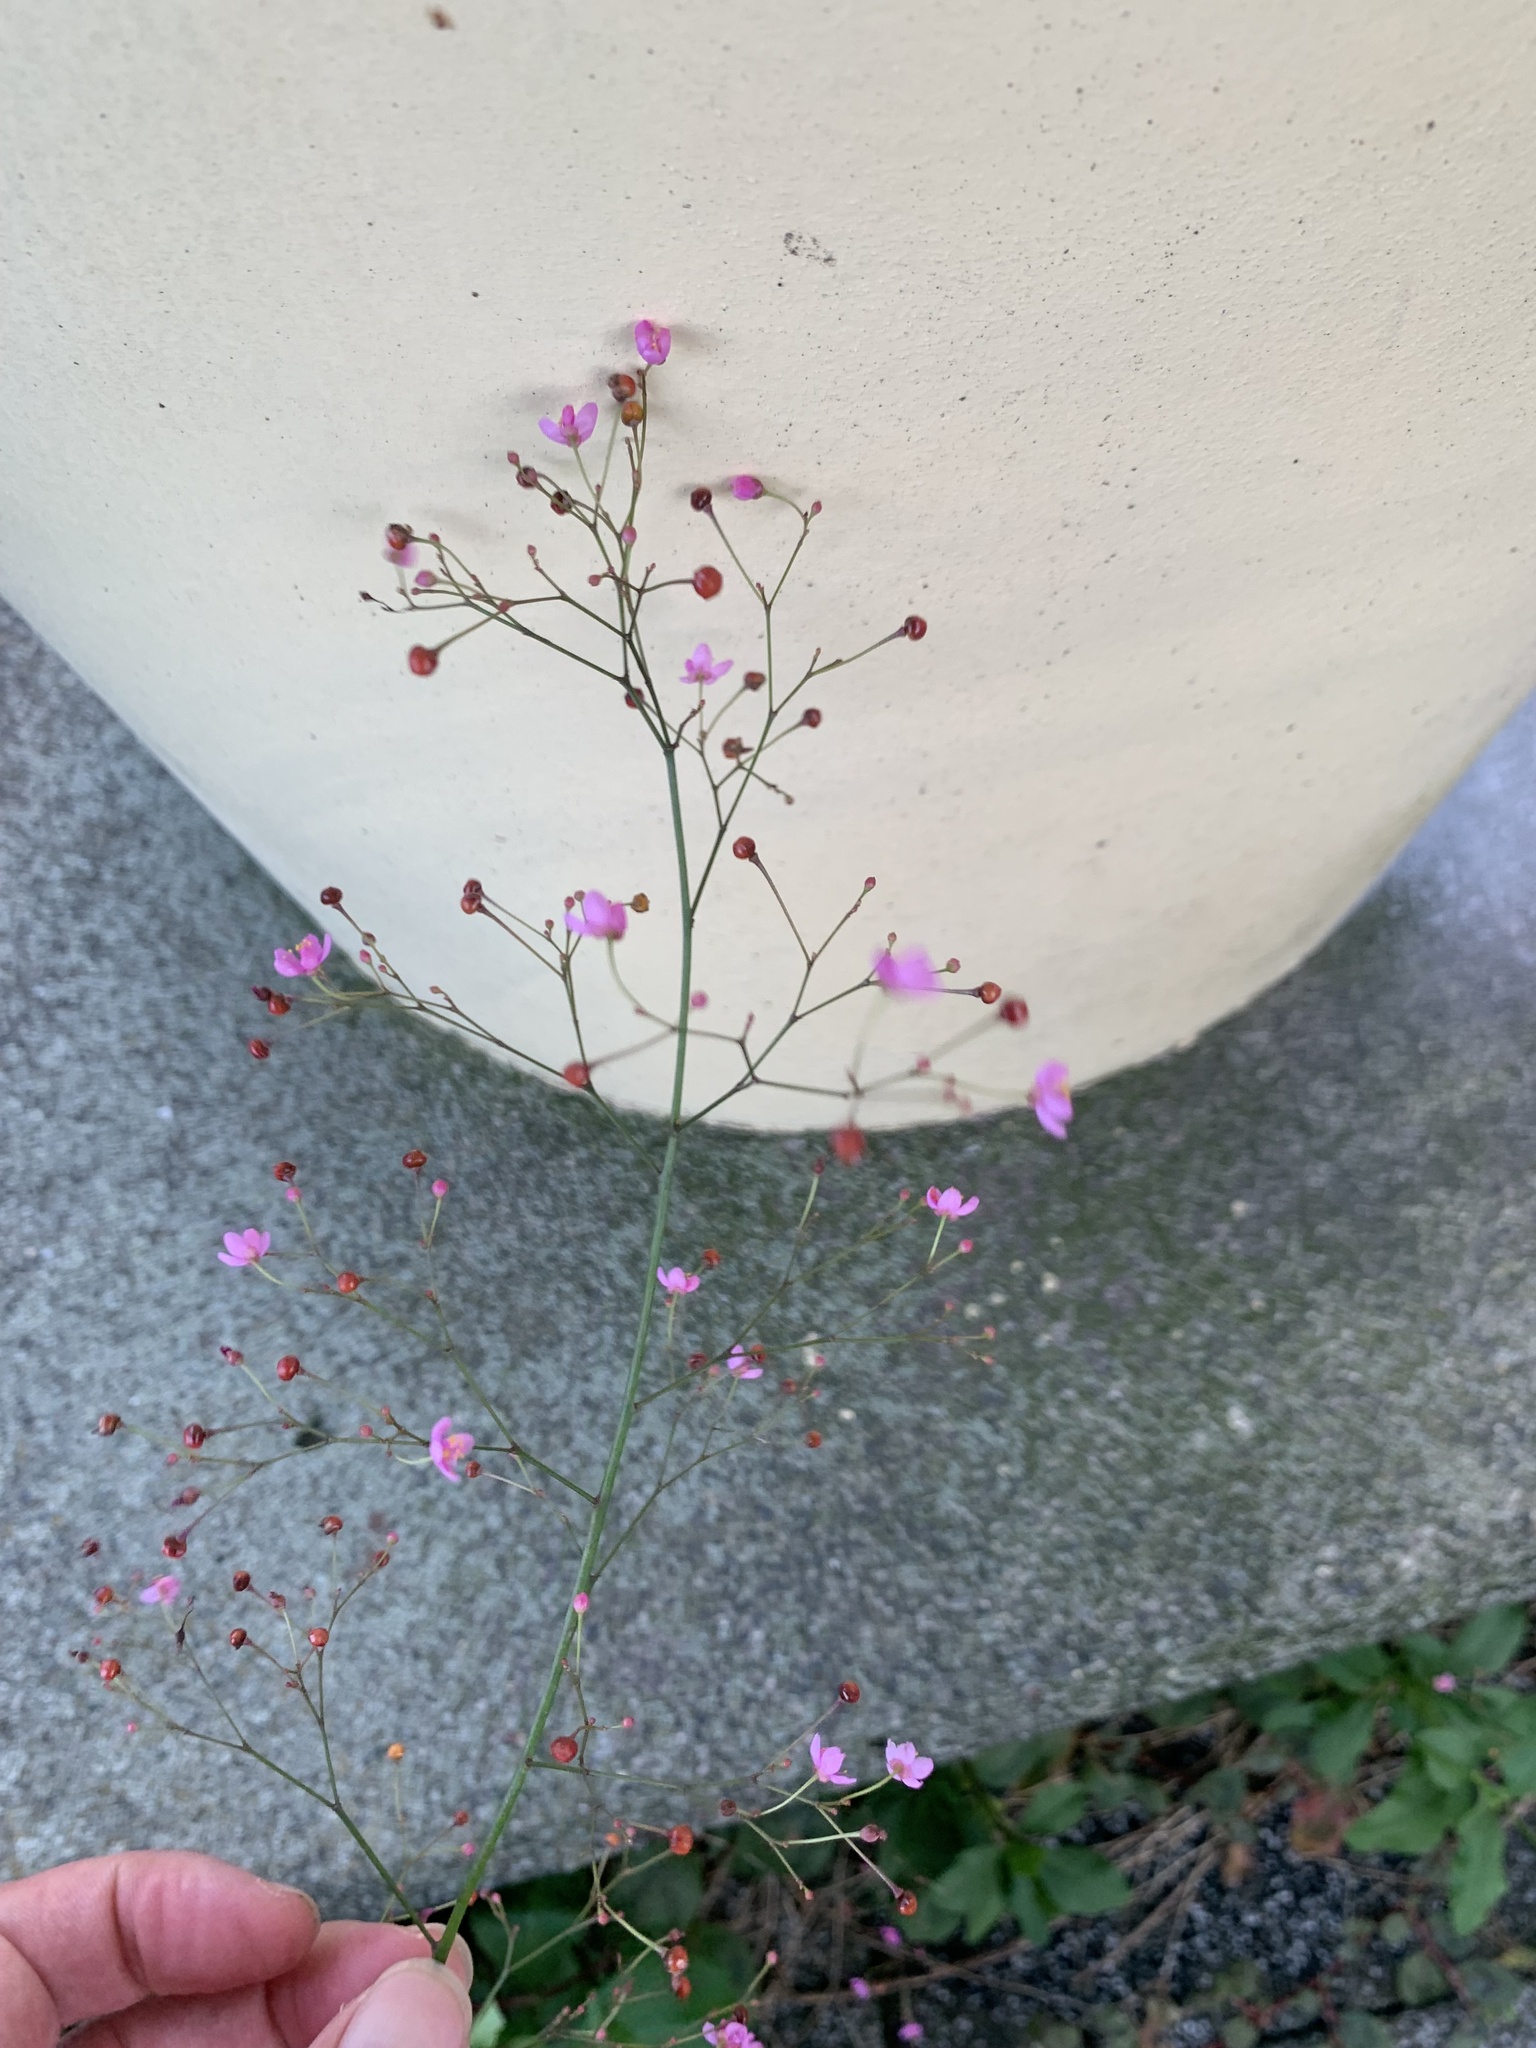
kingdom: Plantae
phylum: Tracheophyta
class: Magnoliopsida
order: Caryophyllales
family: Talinaceae
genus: Talinum
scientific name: Talinum paniculatum
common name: Jewels of opar
